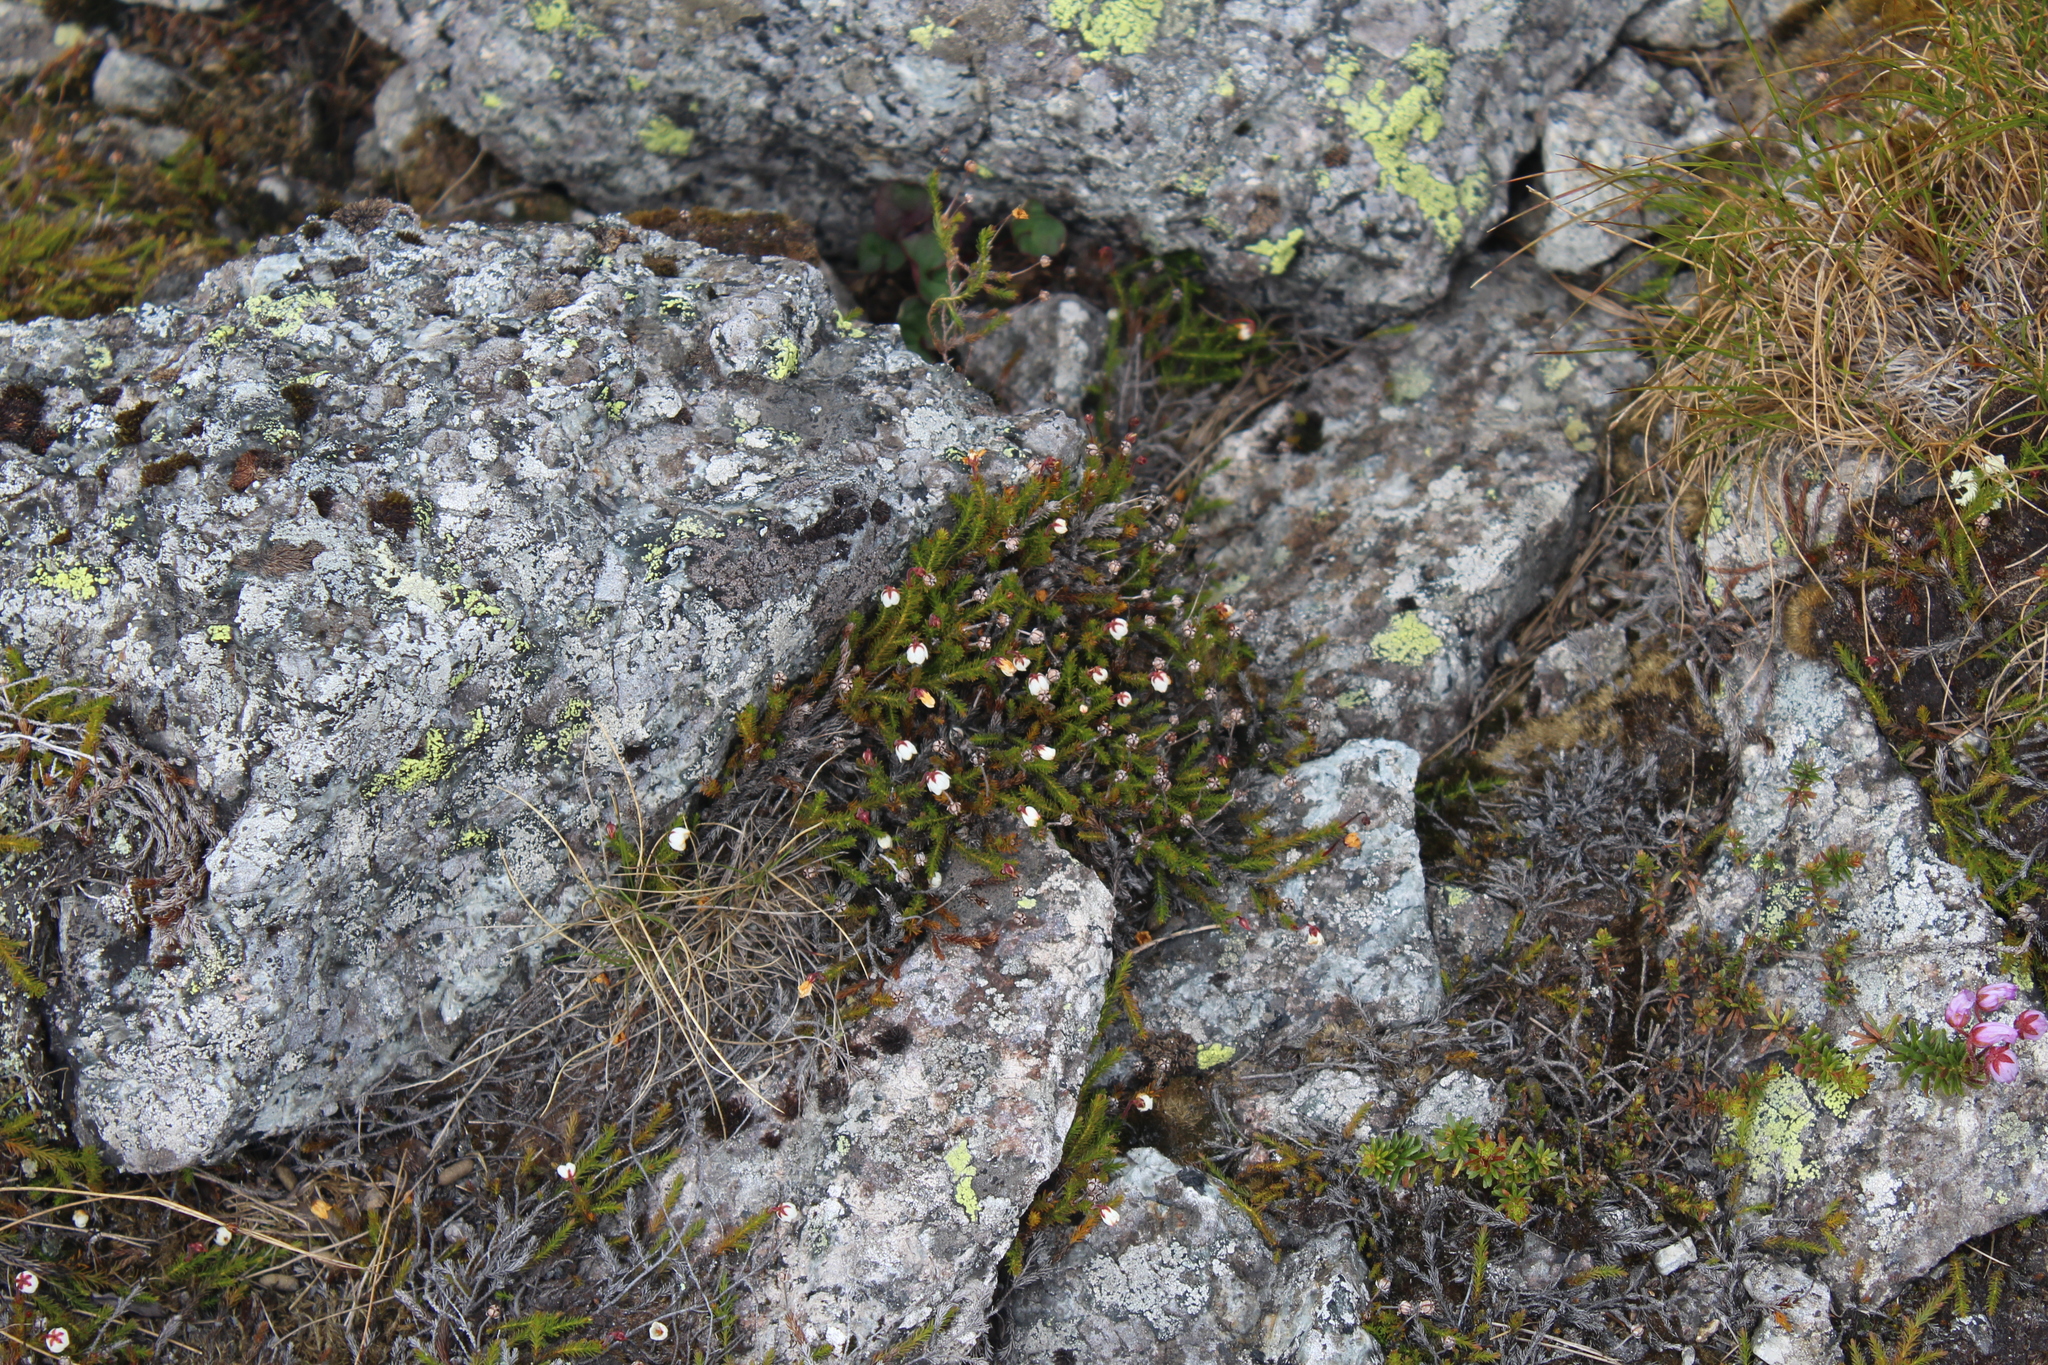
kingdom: Plantae
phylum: Tracheophyta
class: Magnoliopsida
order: Ericales
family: Ericaceae
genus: Harrimanella
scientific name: Harrimanella hypnoides
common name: Moss bell heather
